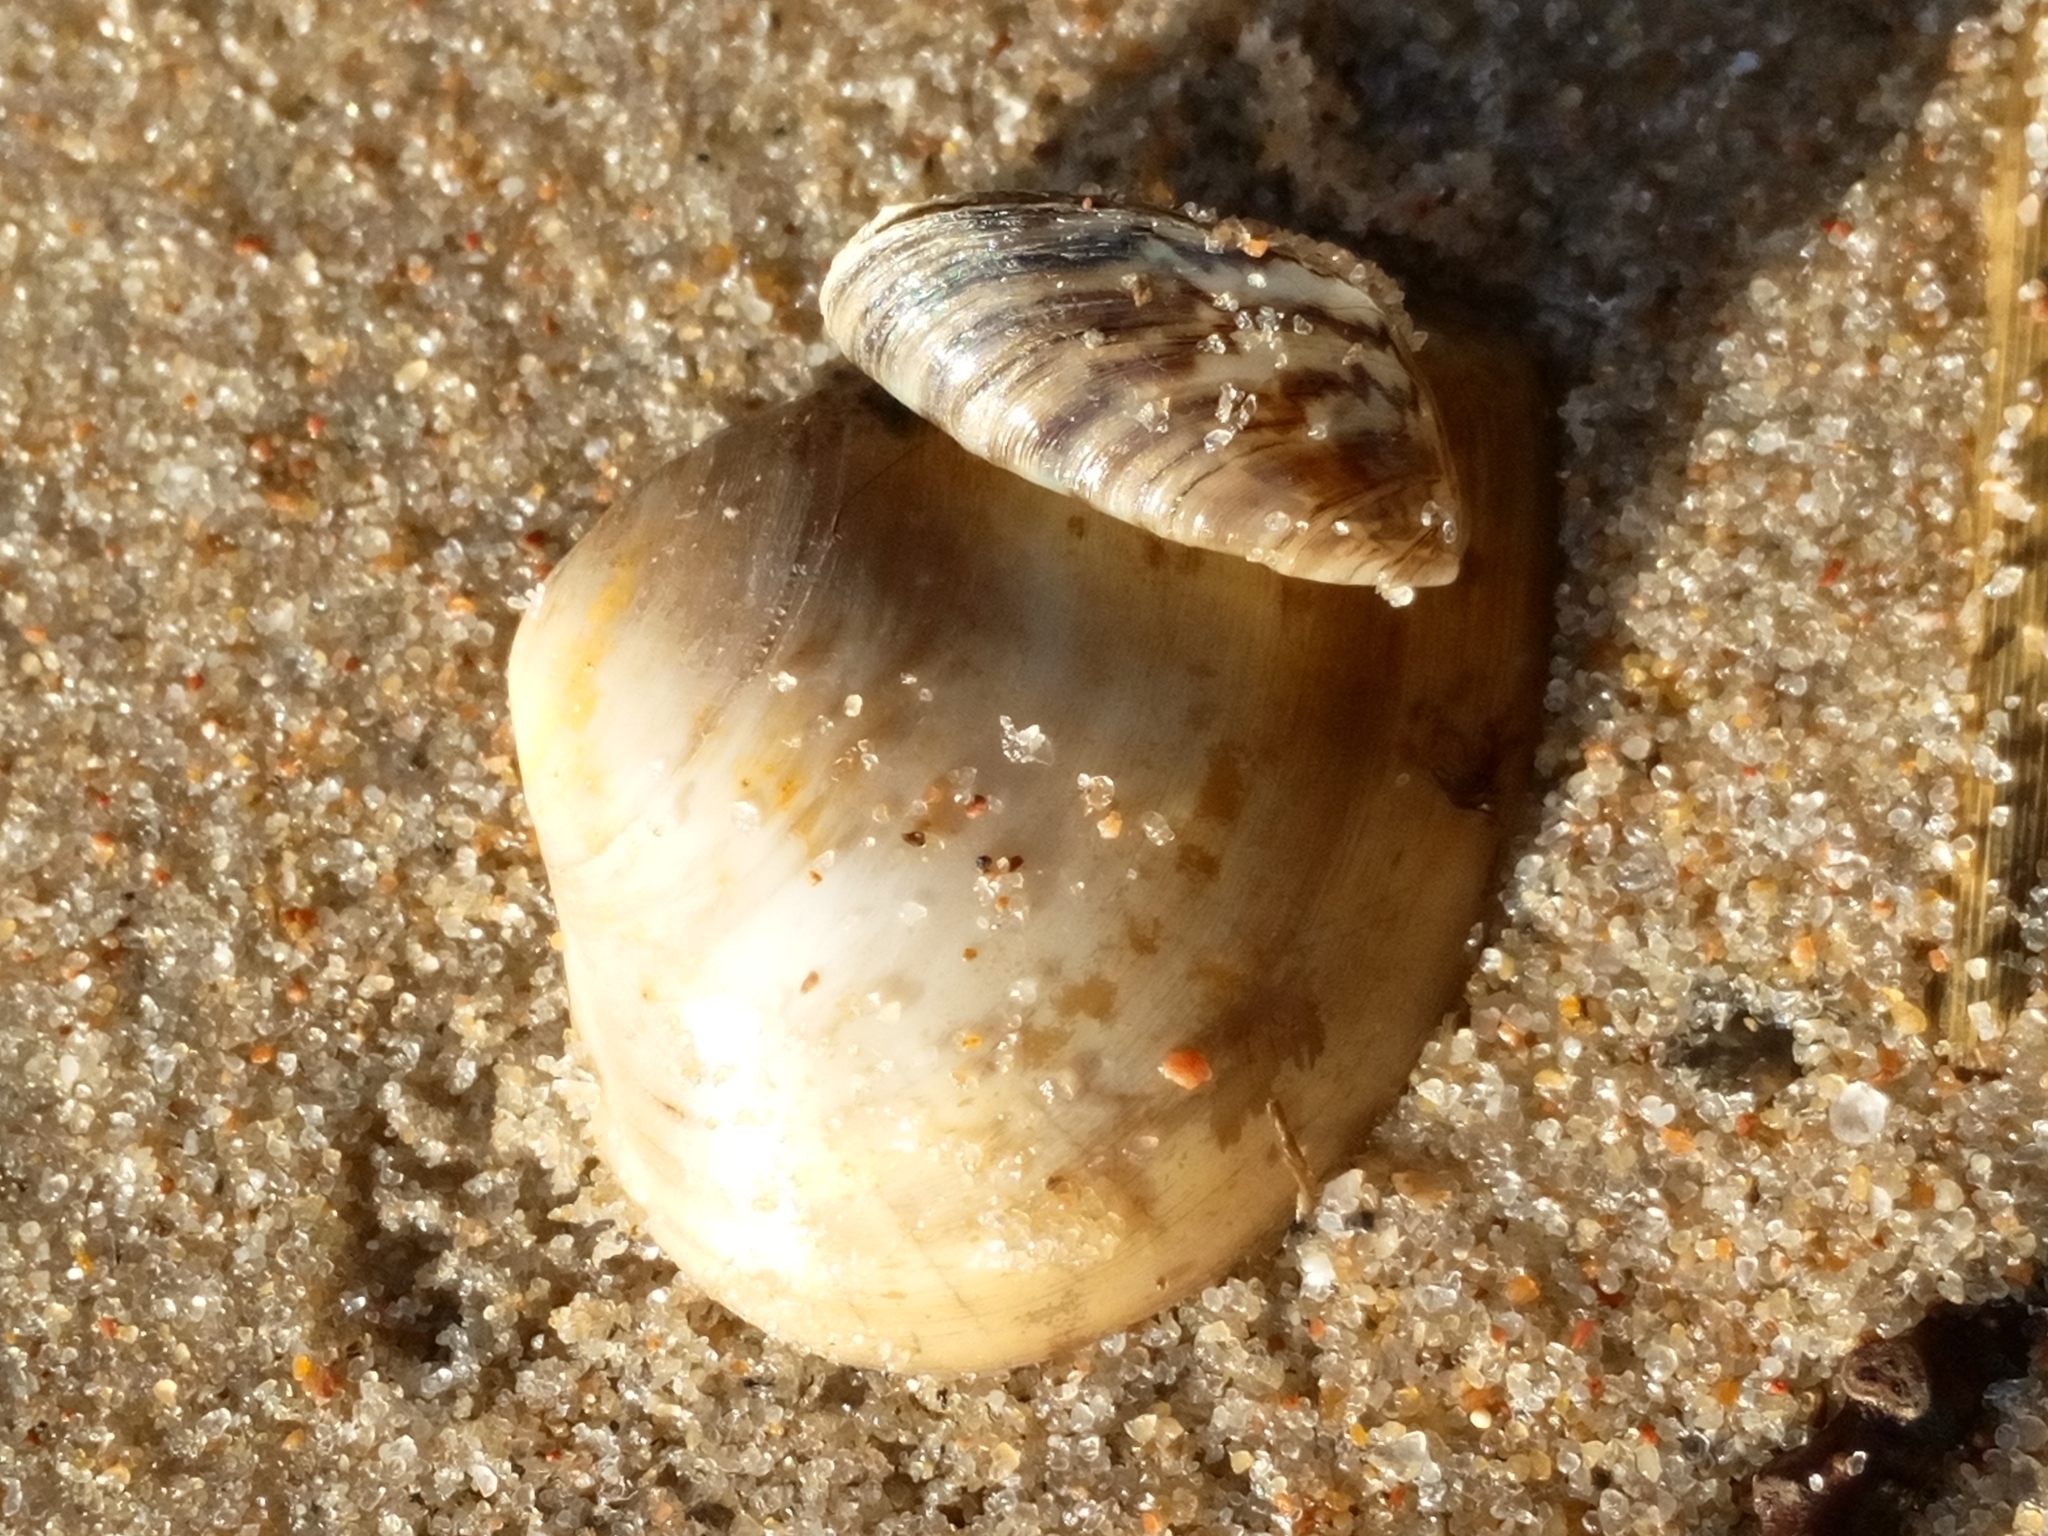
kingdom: Animalia
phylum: Mollusca
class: Bivalvia
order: Venerida
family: Mactridae
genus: Rangia
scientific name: Rangia cuneata
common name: Atlantic rangia
